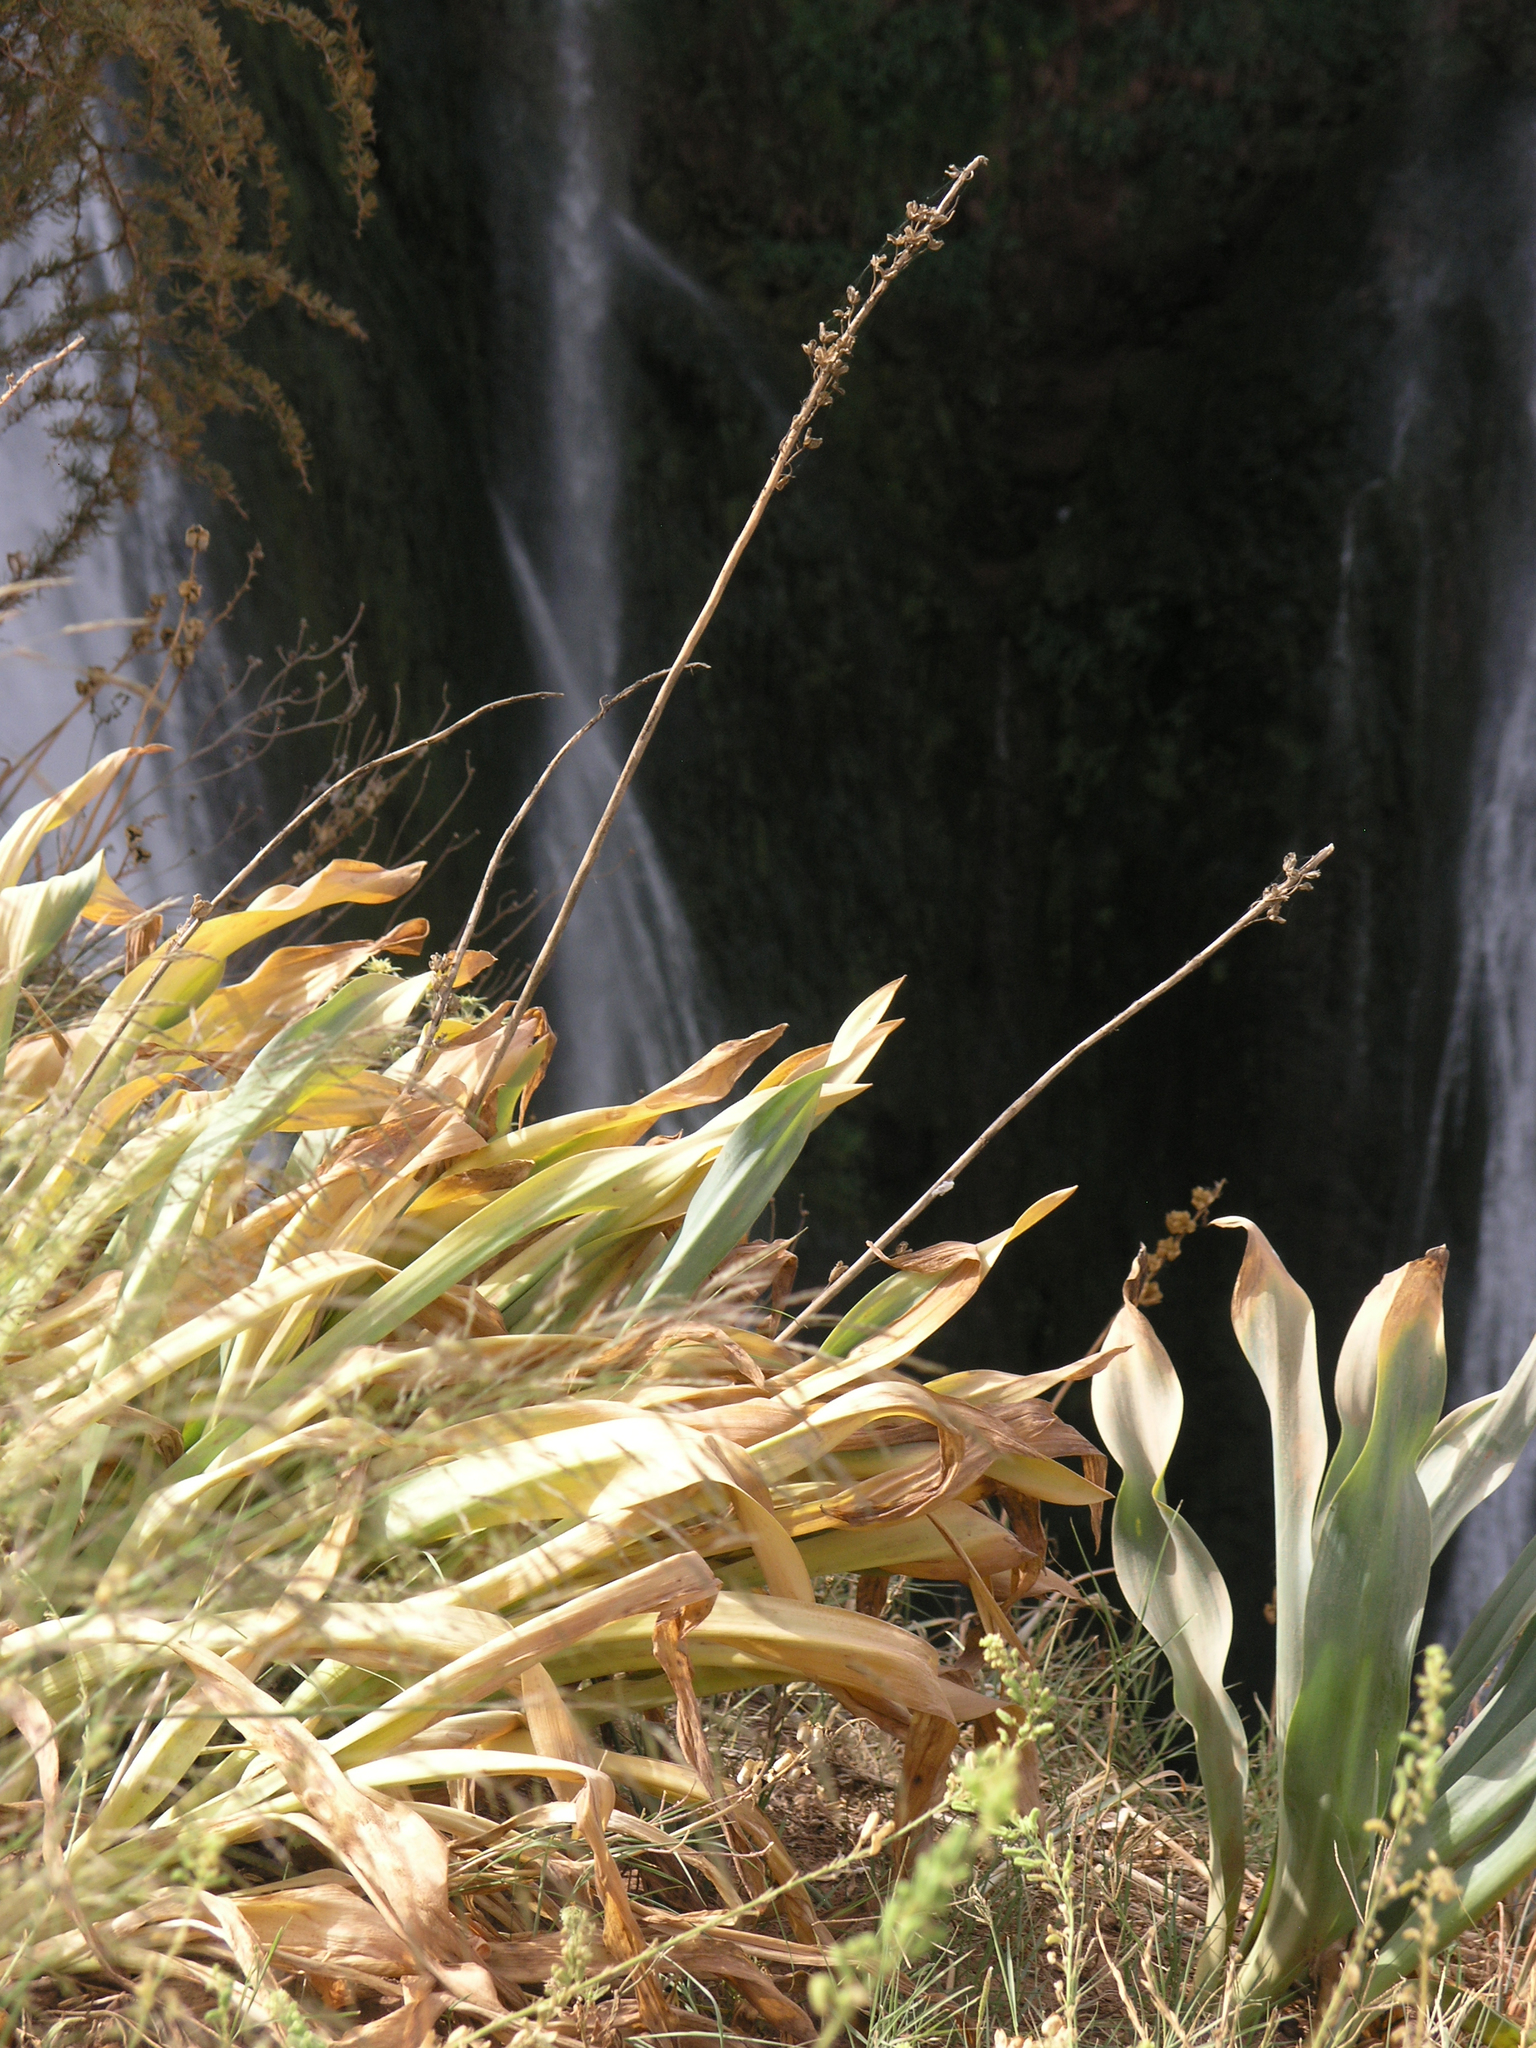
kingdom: Plantae
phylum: Tracheophyta
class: Liliopsida
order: Asparagales
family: Asparagaceae
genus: Drimia
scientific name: Drimia maura
